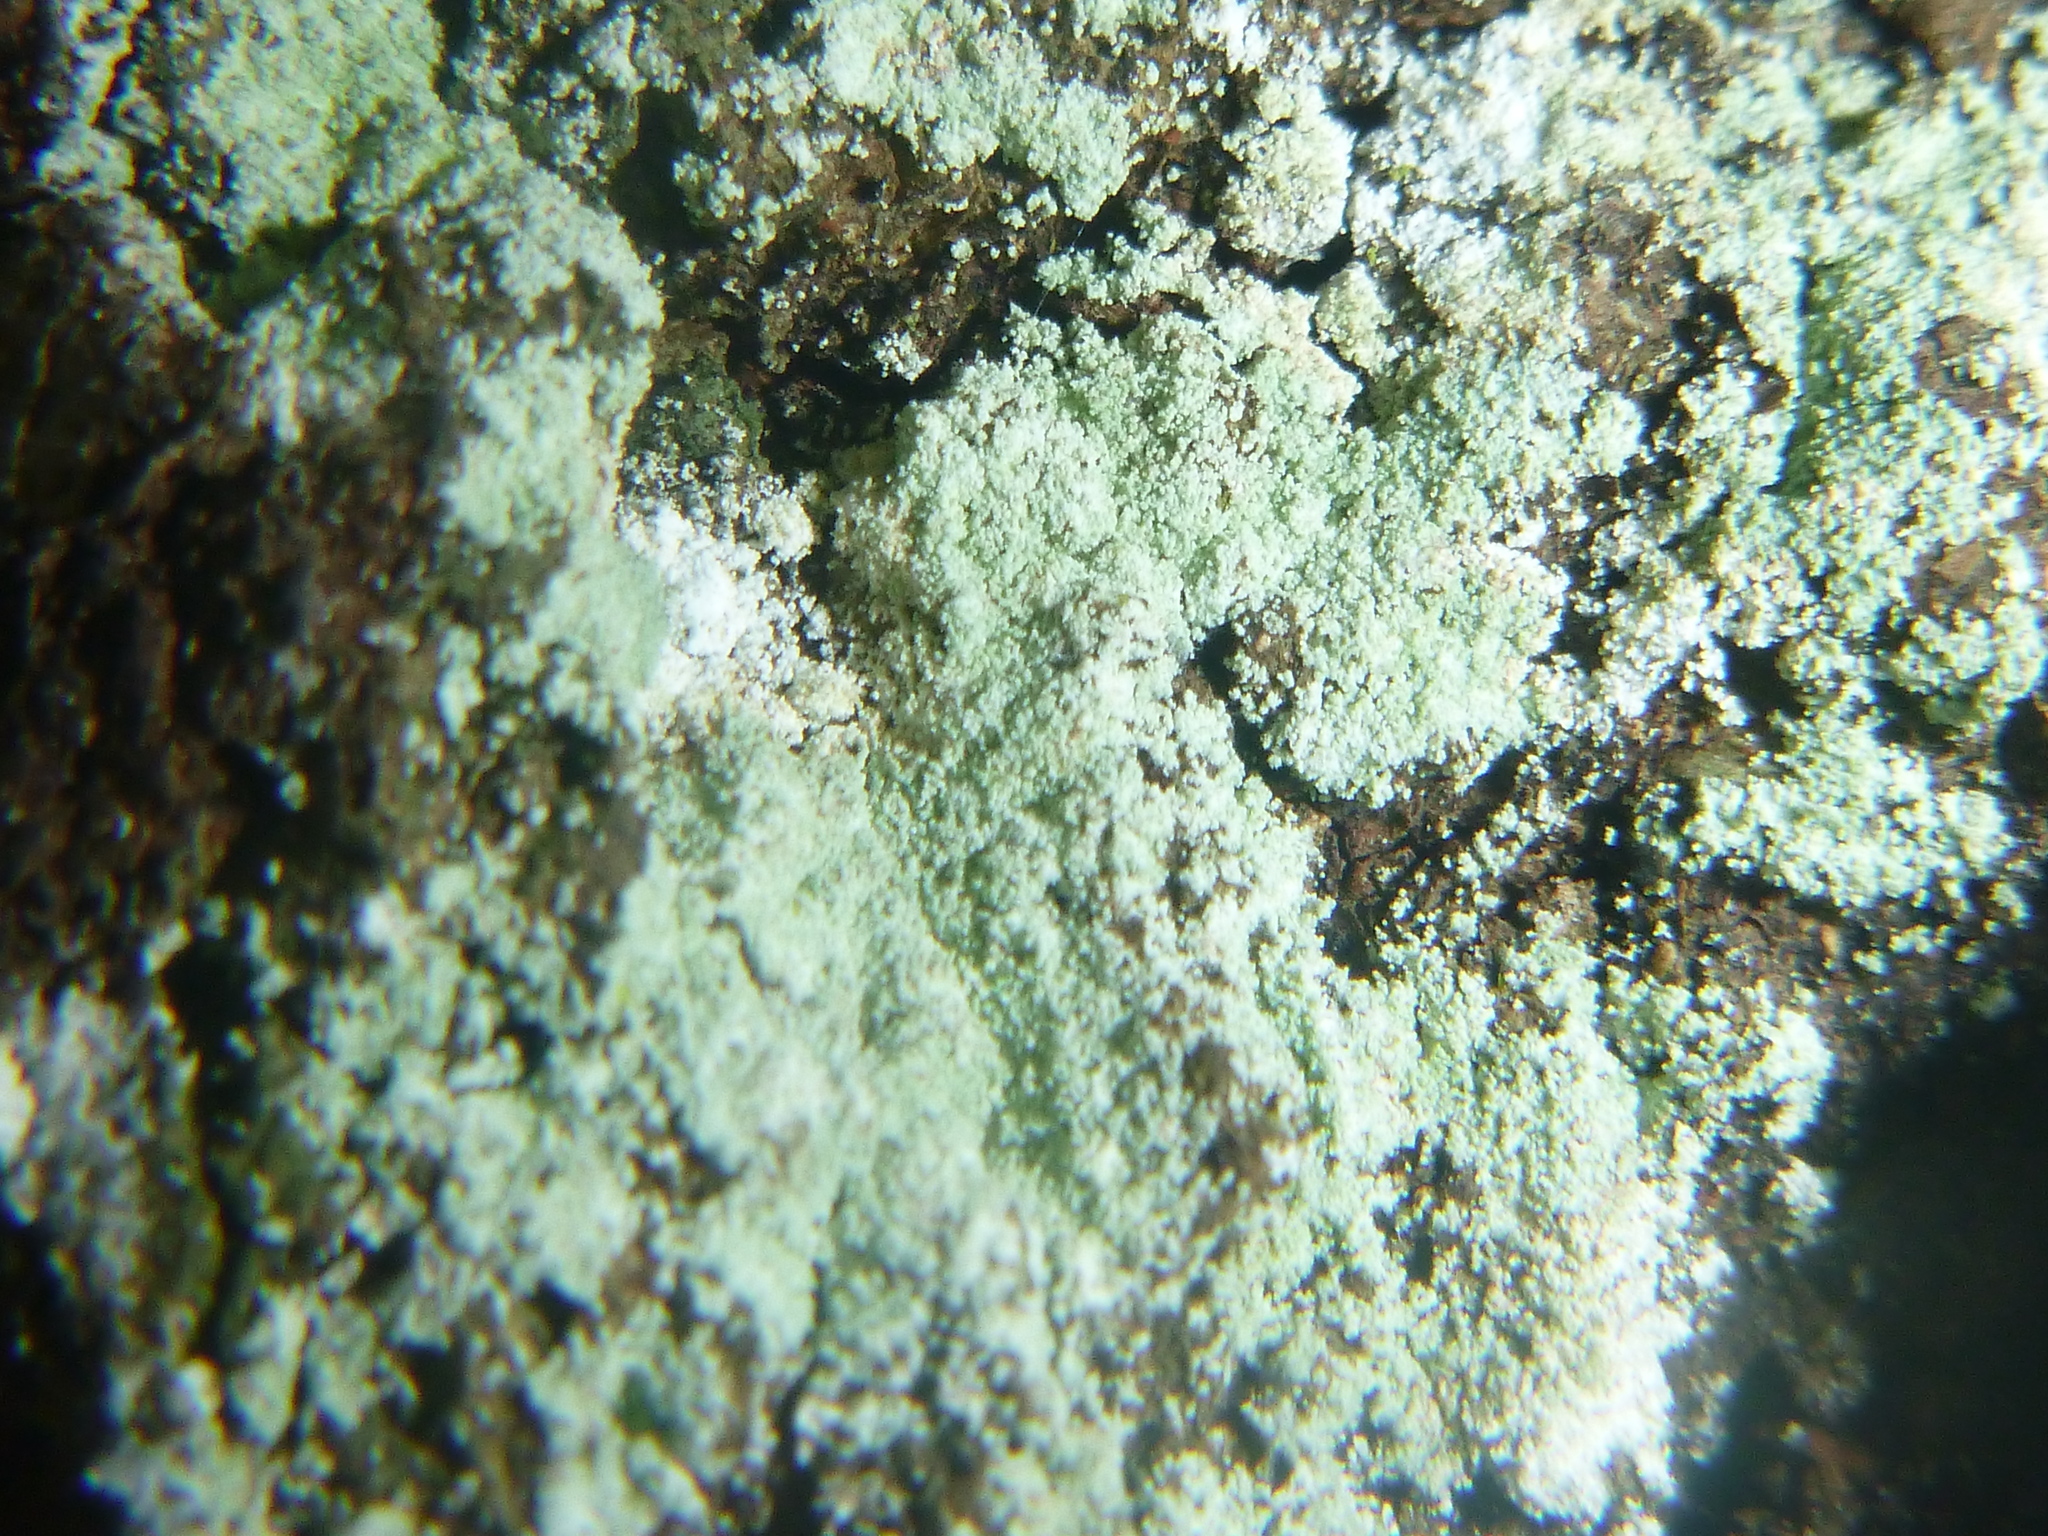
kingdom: Fungi
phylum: Ascomycota
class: Lecanoromycetes
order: Lecanorales
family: Stereocaulaceae
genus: Lepraria
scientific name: Lepraria lobificans
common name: Fluffy dust lichen
